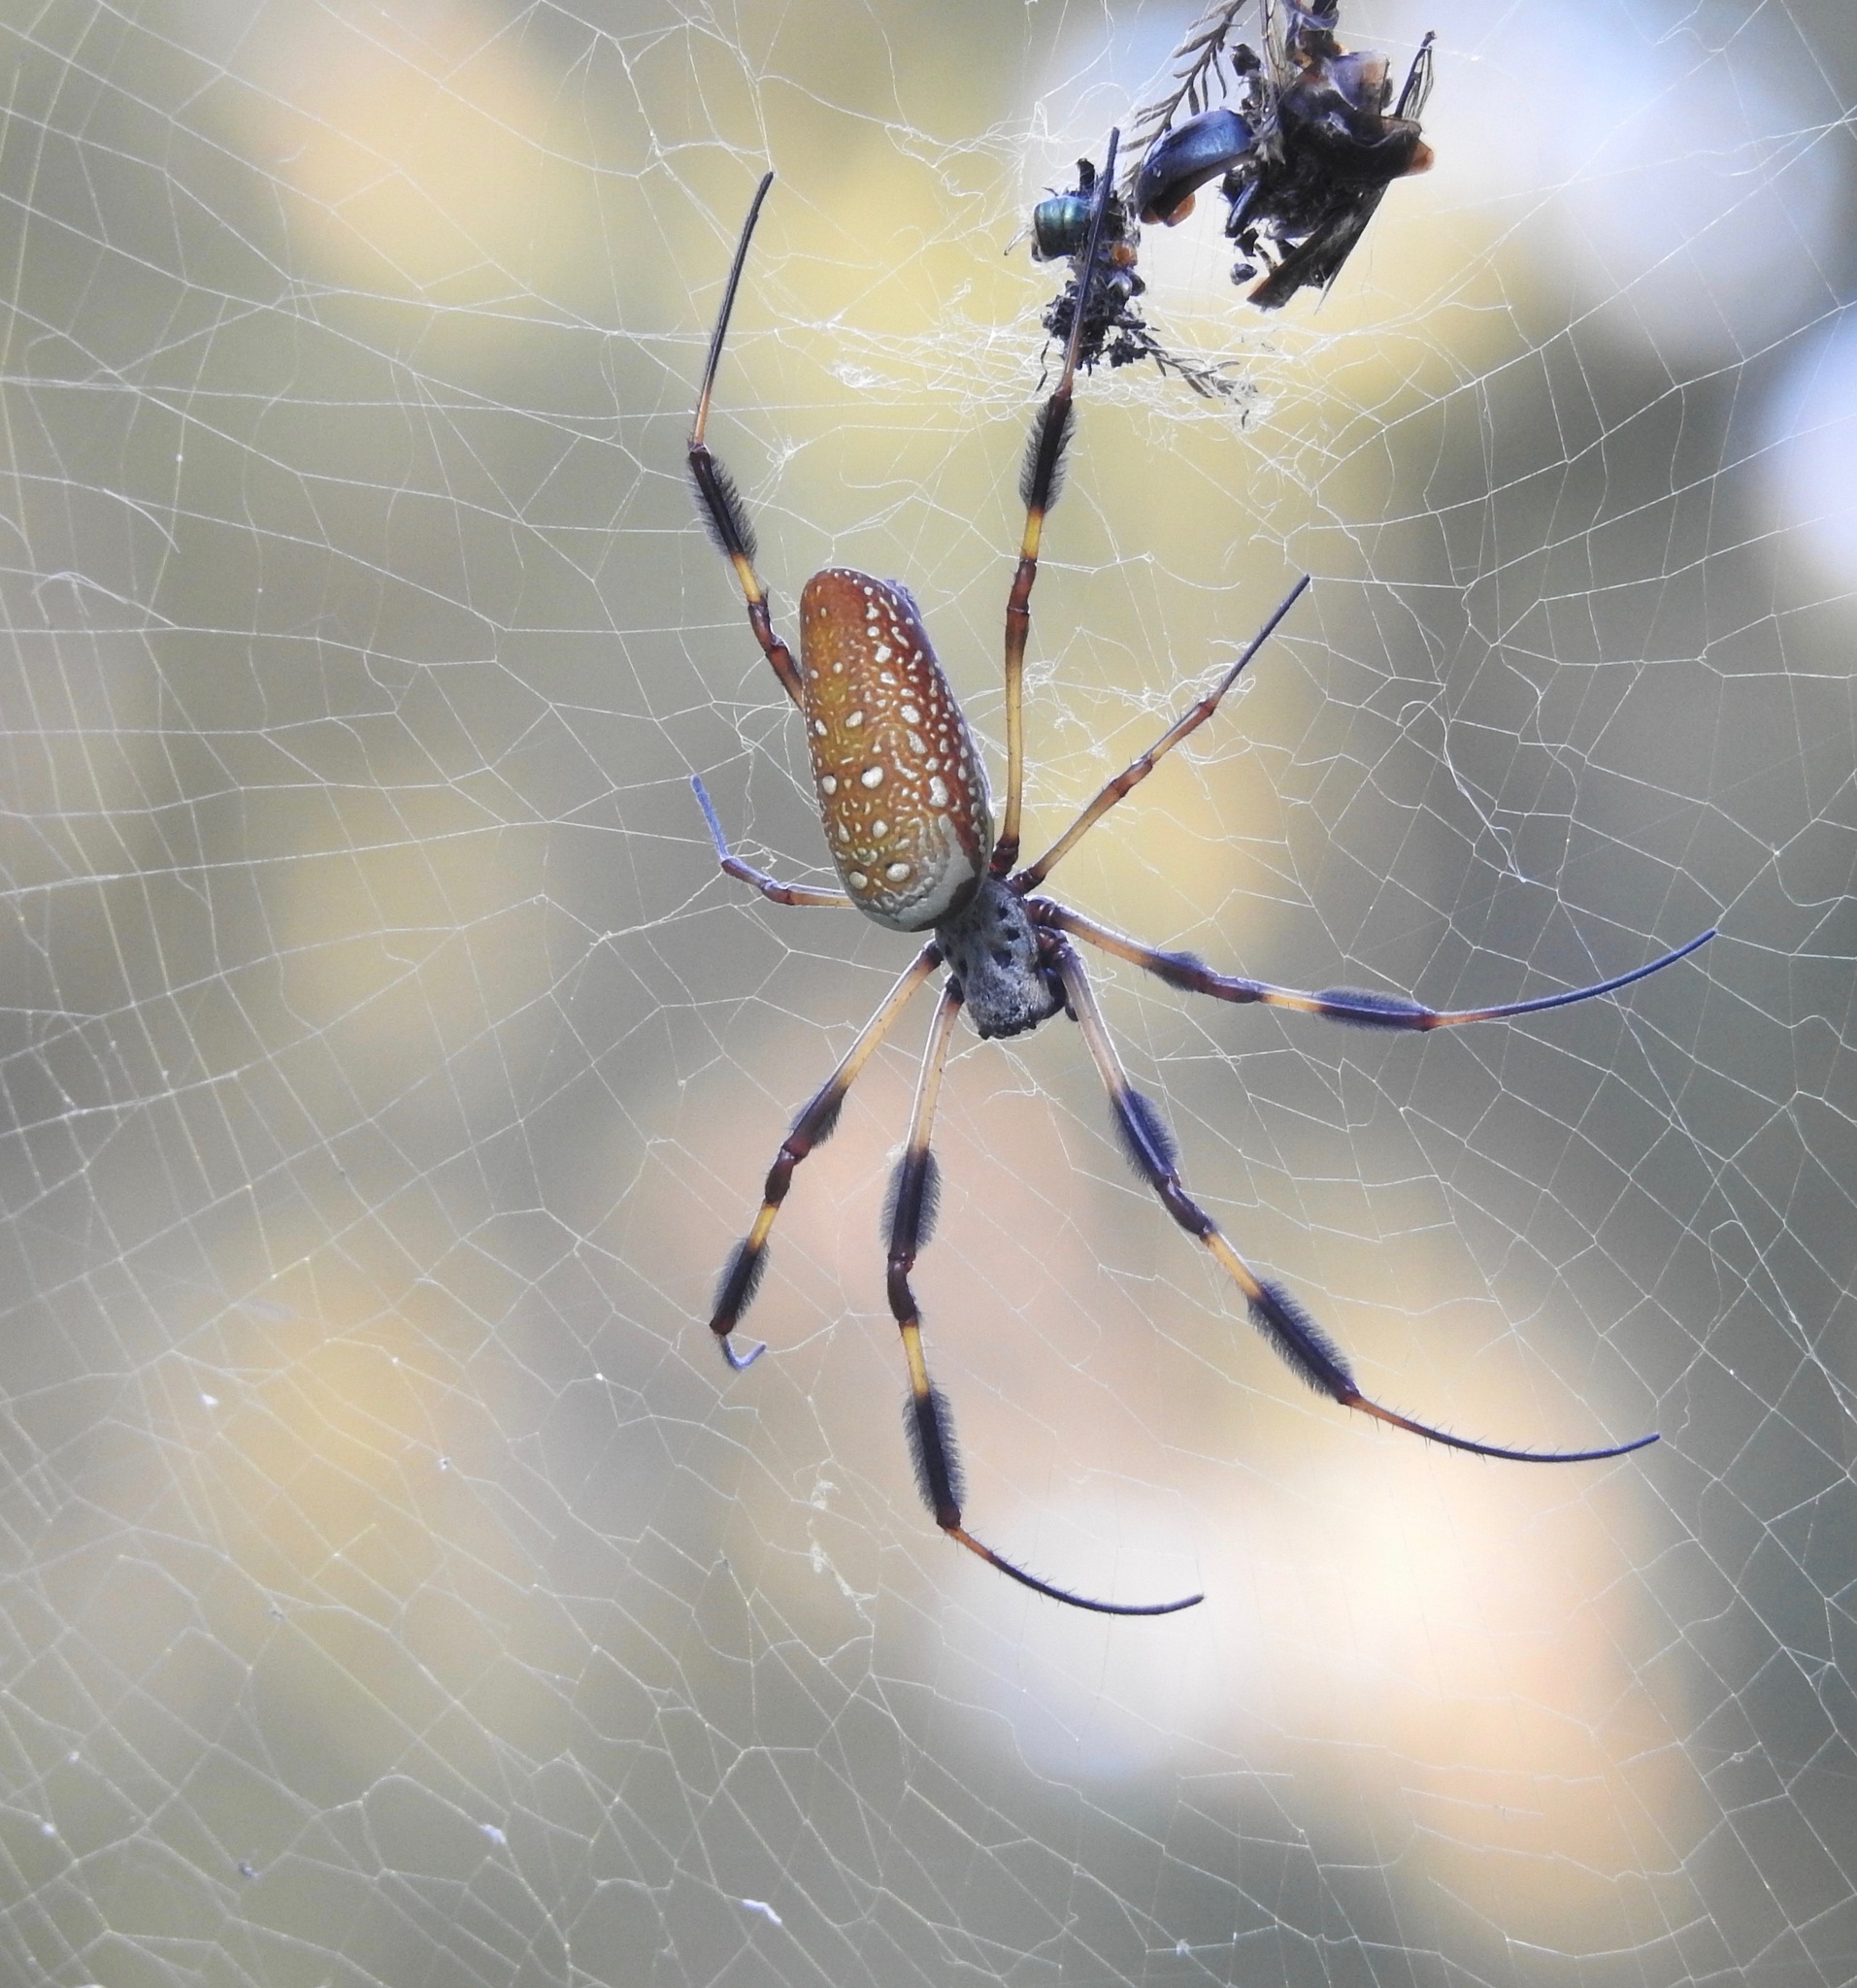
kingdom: Animalia
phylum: Arthropoda
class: Arachnida
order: Araneae
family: Araneidae
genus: Trichonephila
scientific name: Trichonephila clavipes
